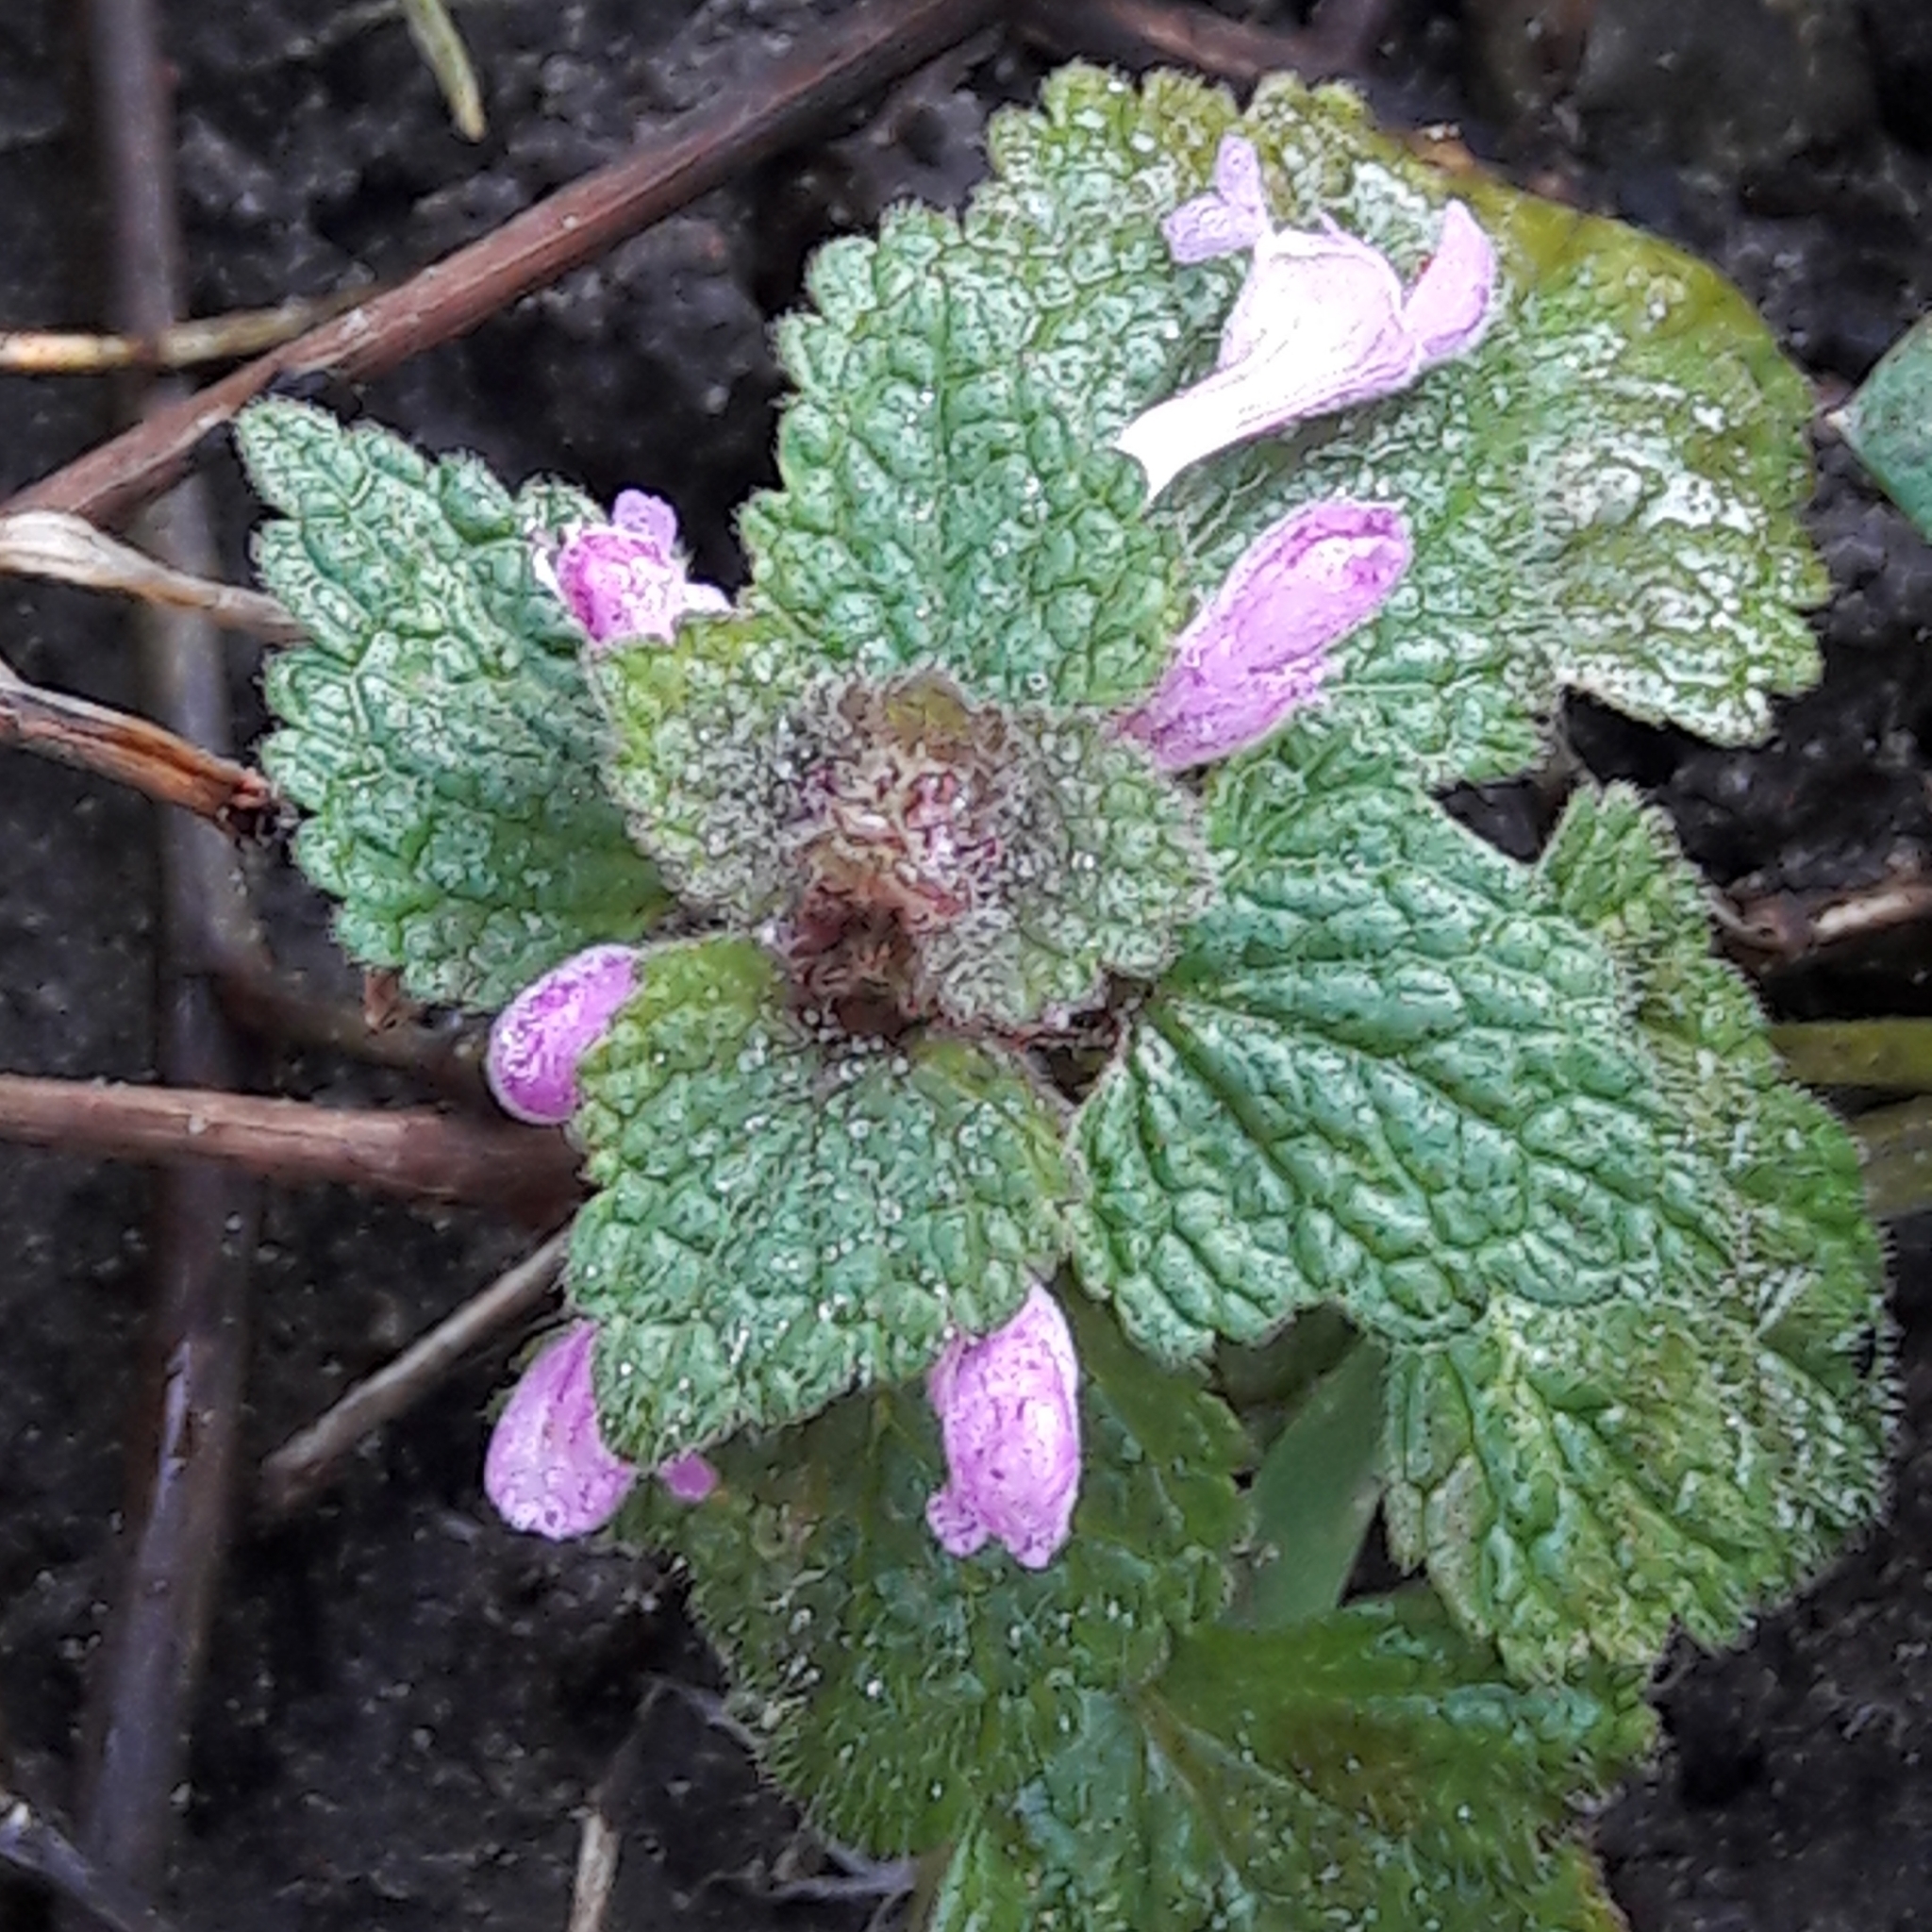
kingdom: Plantae
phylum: Tracheophyta
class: Magnoliopsida
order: Lamiales
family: Lamiaceae
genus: Lamium
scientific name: Lamium purpureum
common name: Red dead-nettle
